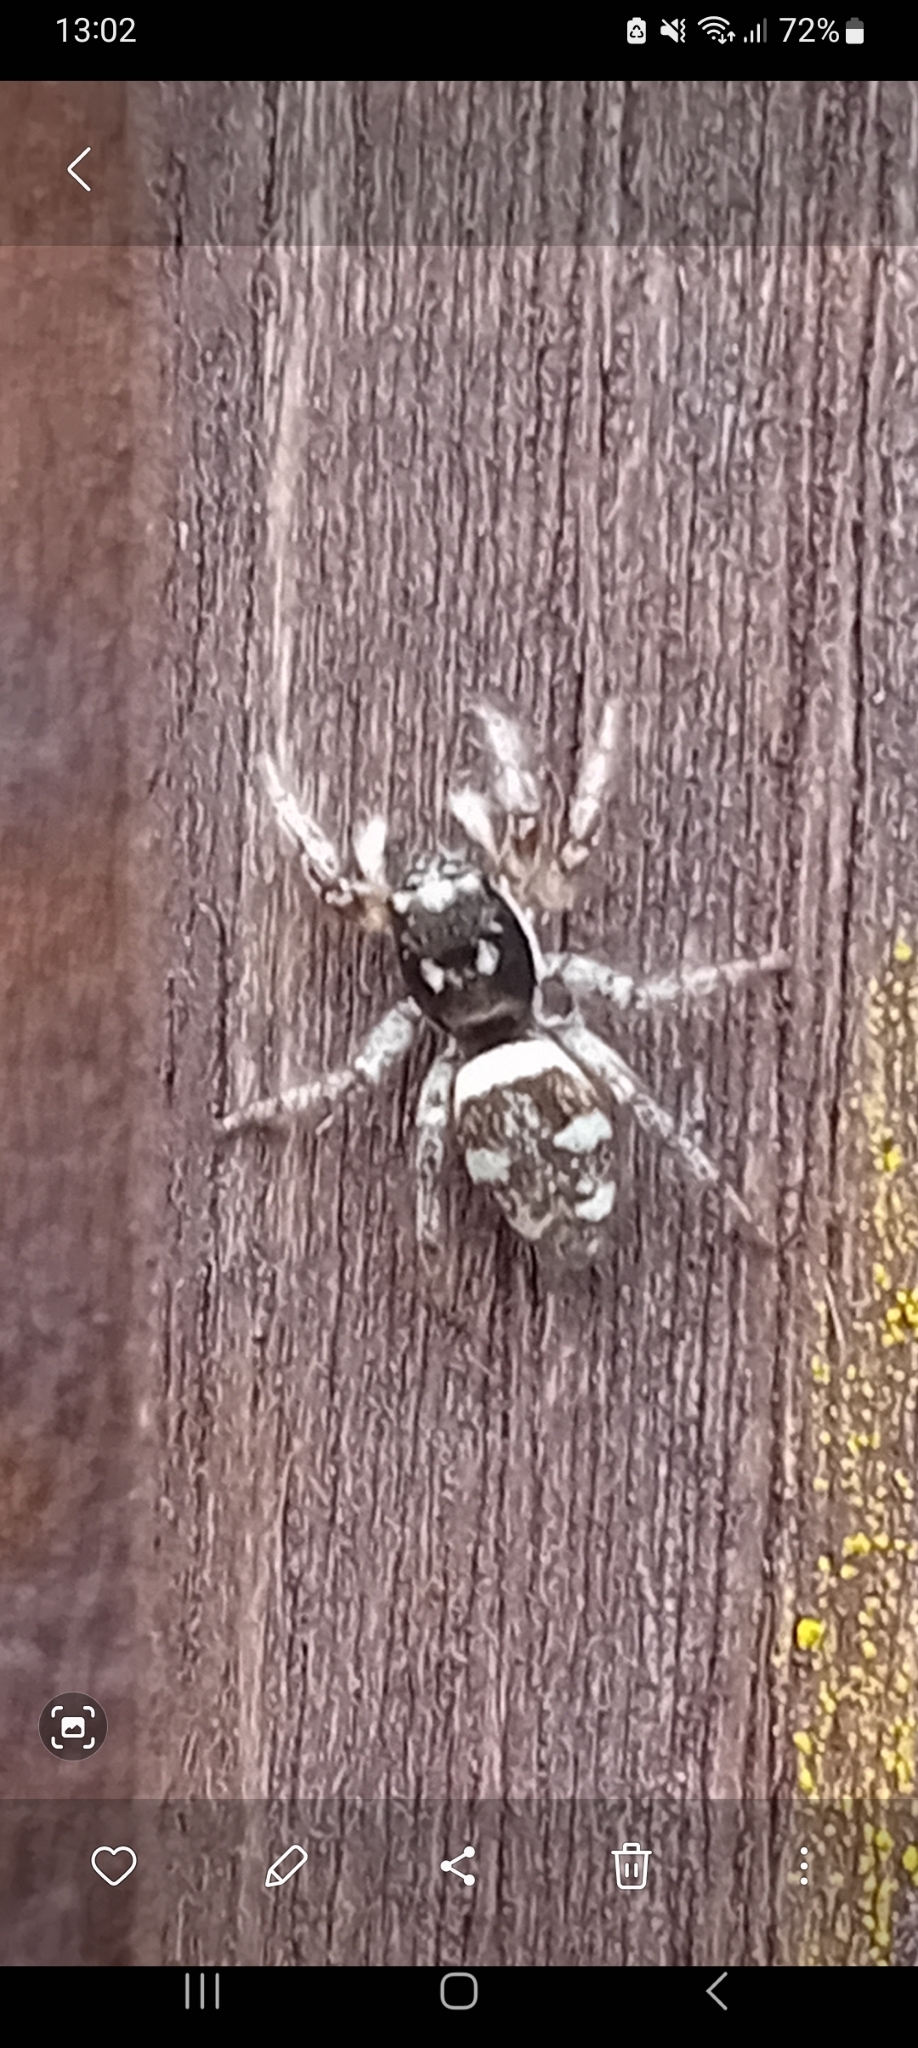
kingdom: Animalia
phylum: Arthropoda
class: Arachnida
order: Araneae
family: Salticidae
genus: Salticus
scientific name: Salticus scenicus
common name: Zebra jumper
